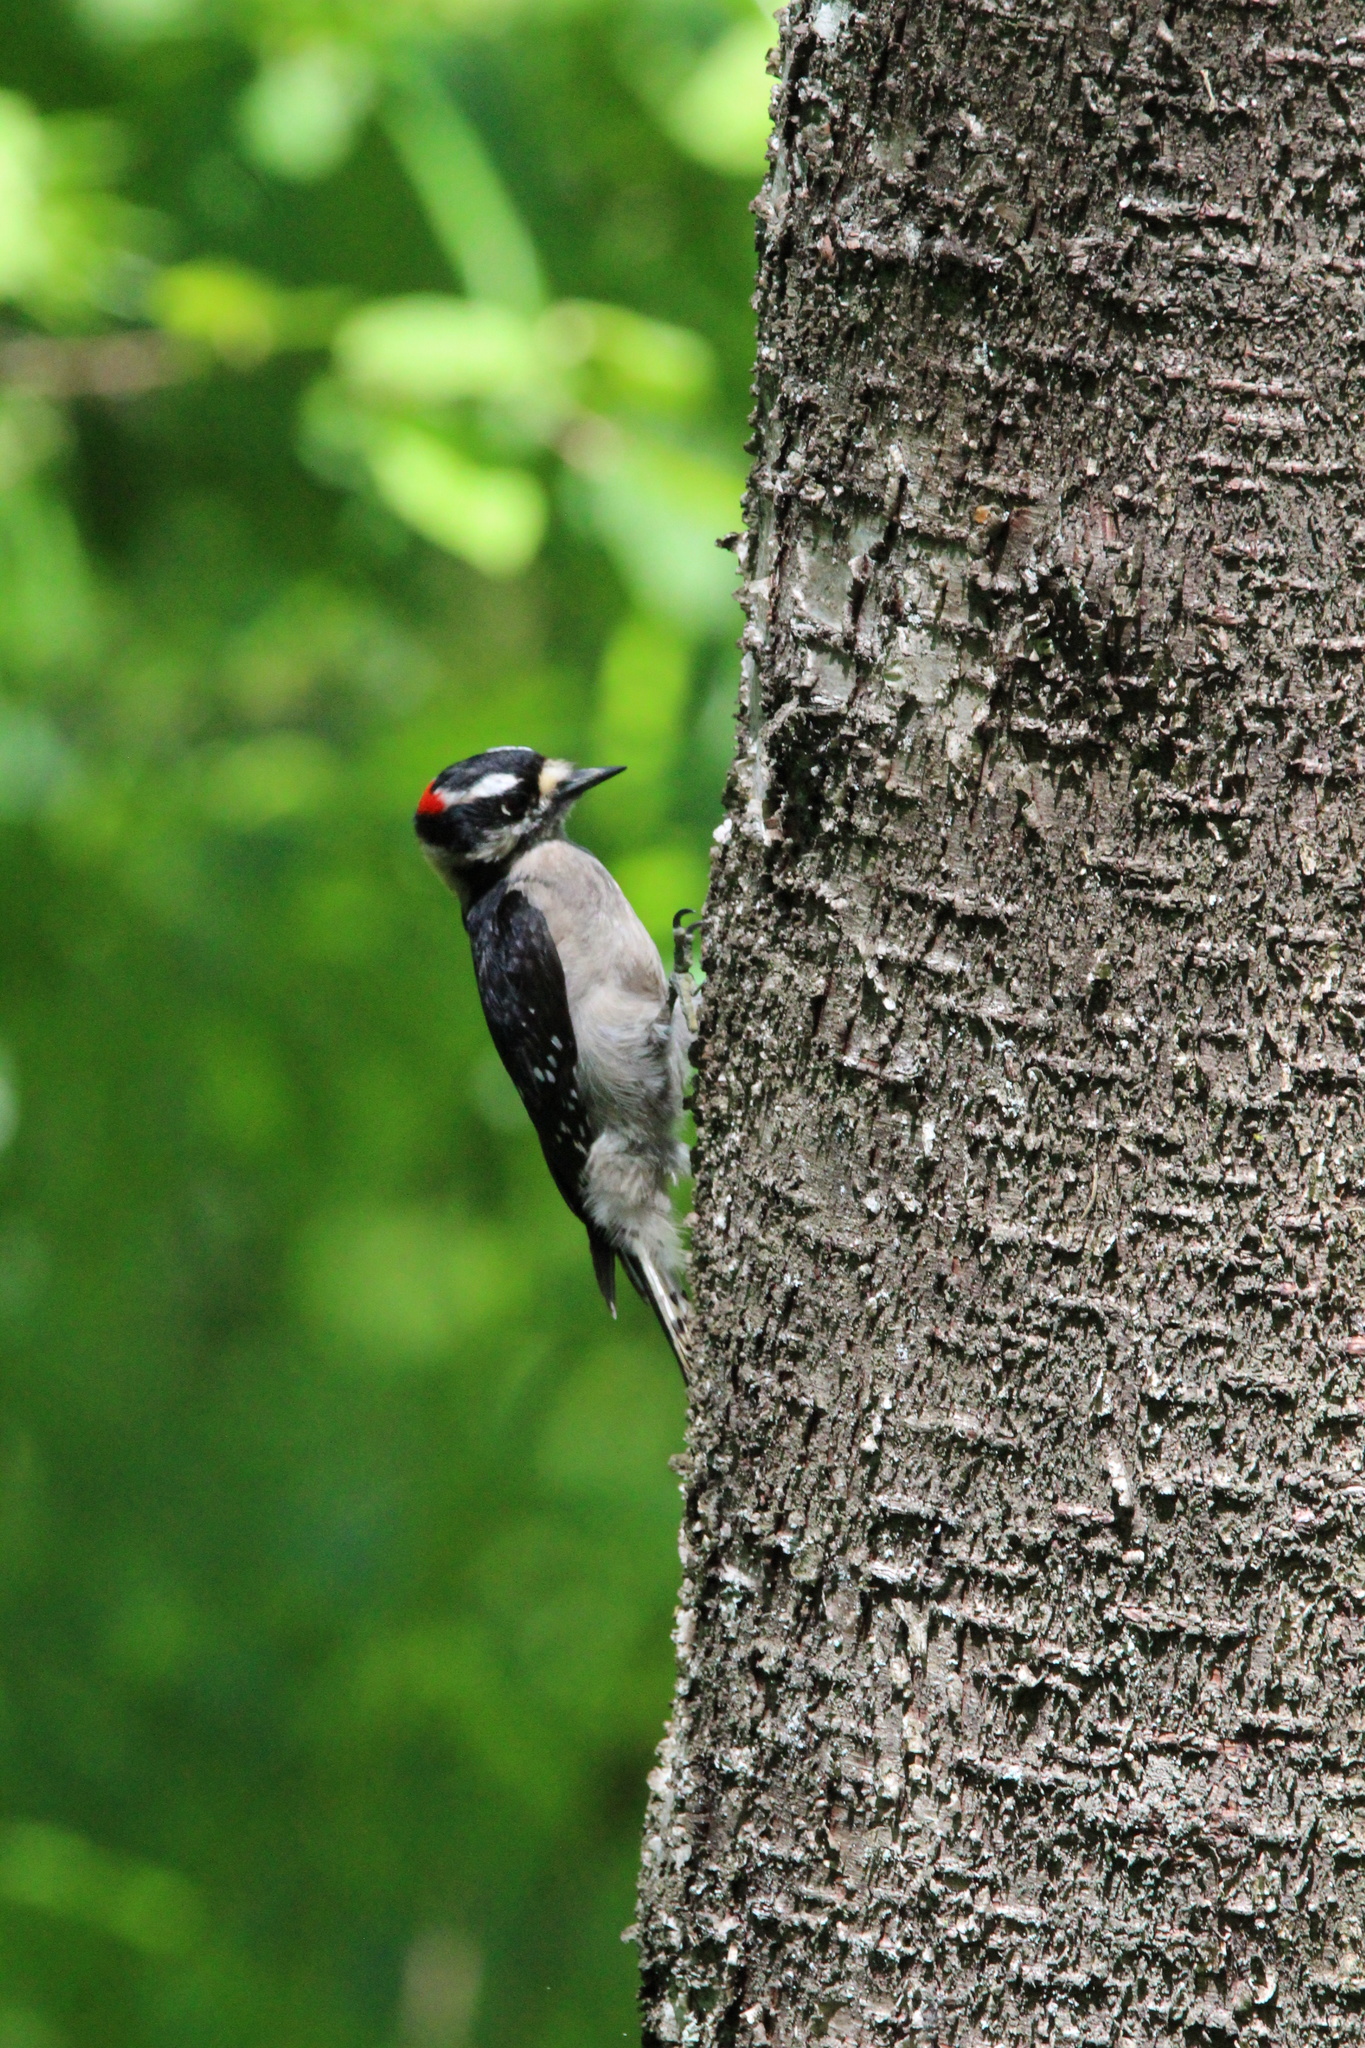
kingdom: Animalia
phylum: Chordata
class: Aves
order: Piciformes
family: Picidae
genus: Dryobates
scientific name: Dryobates pubescens
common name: Downy woodpecker
